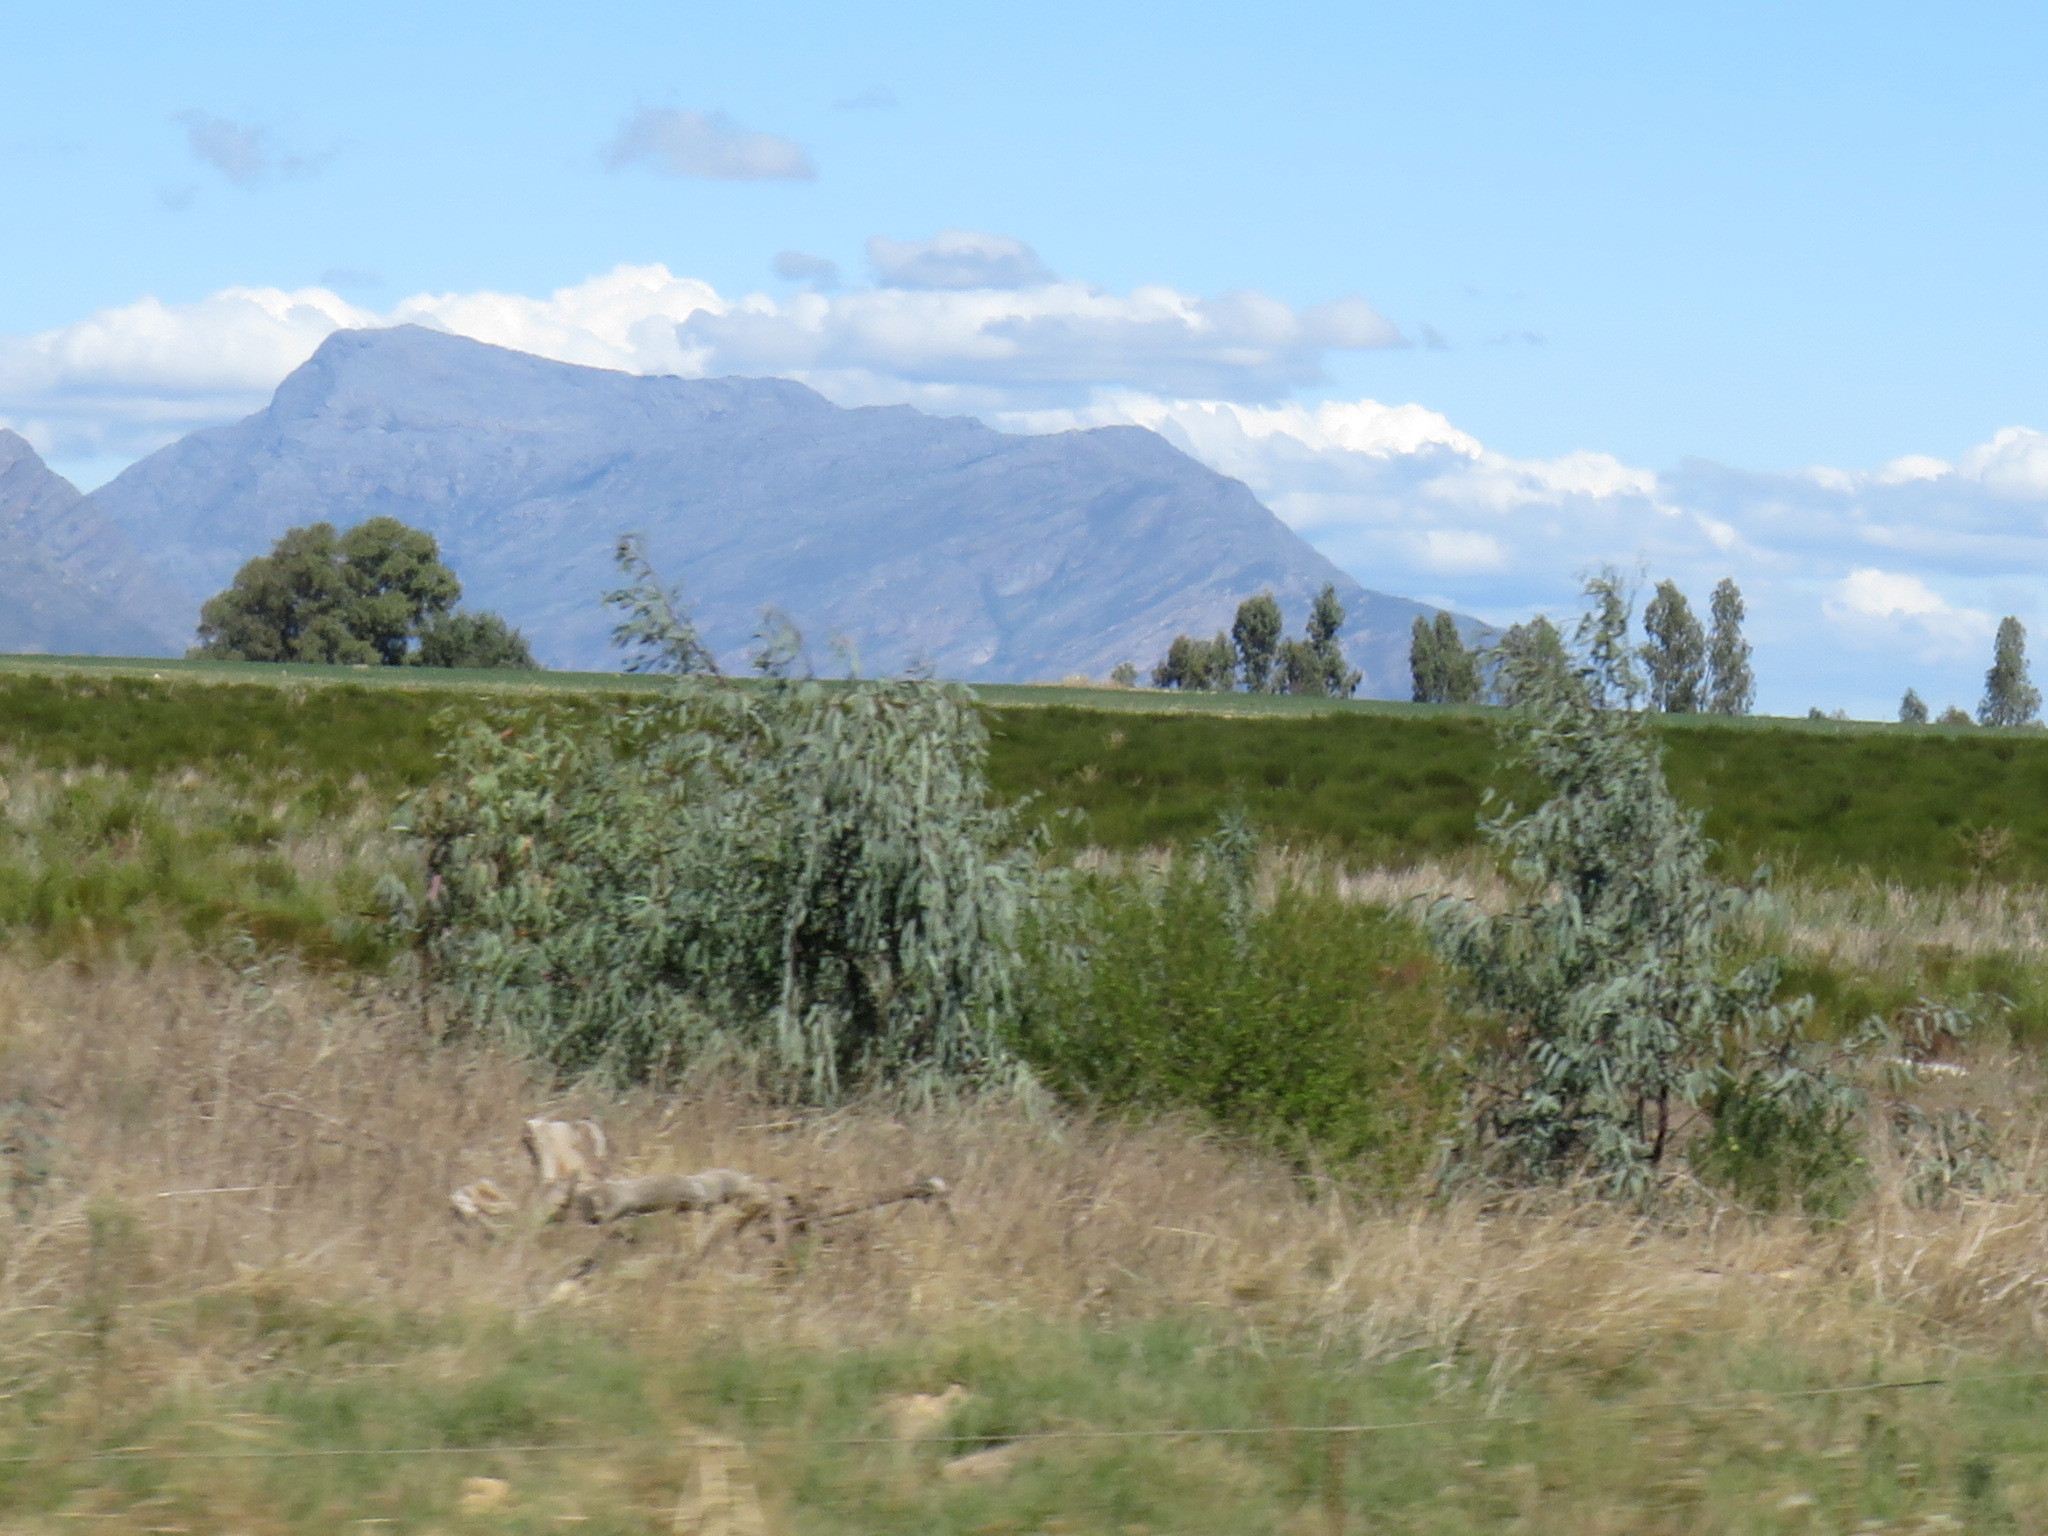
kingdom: Plantae
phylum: Tracheophyta
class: Magnoliopsida
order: Myrtales
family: Myrtaceae
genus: Eucalyptus
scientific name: Eucalyptus camaldulensis
